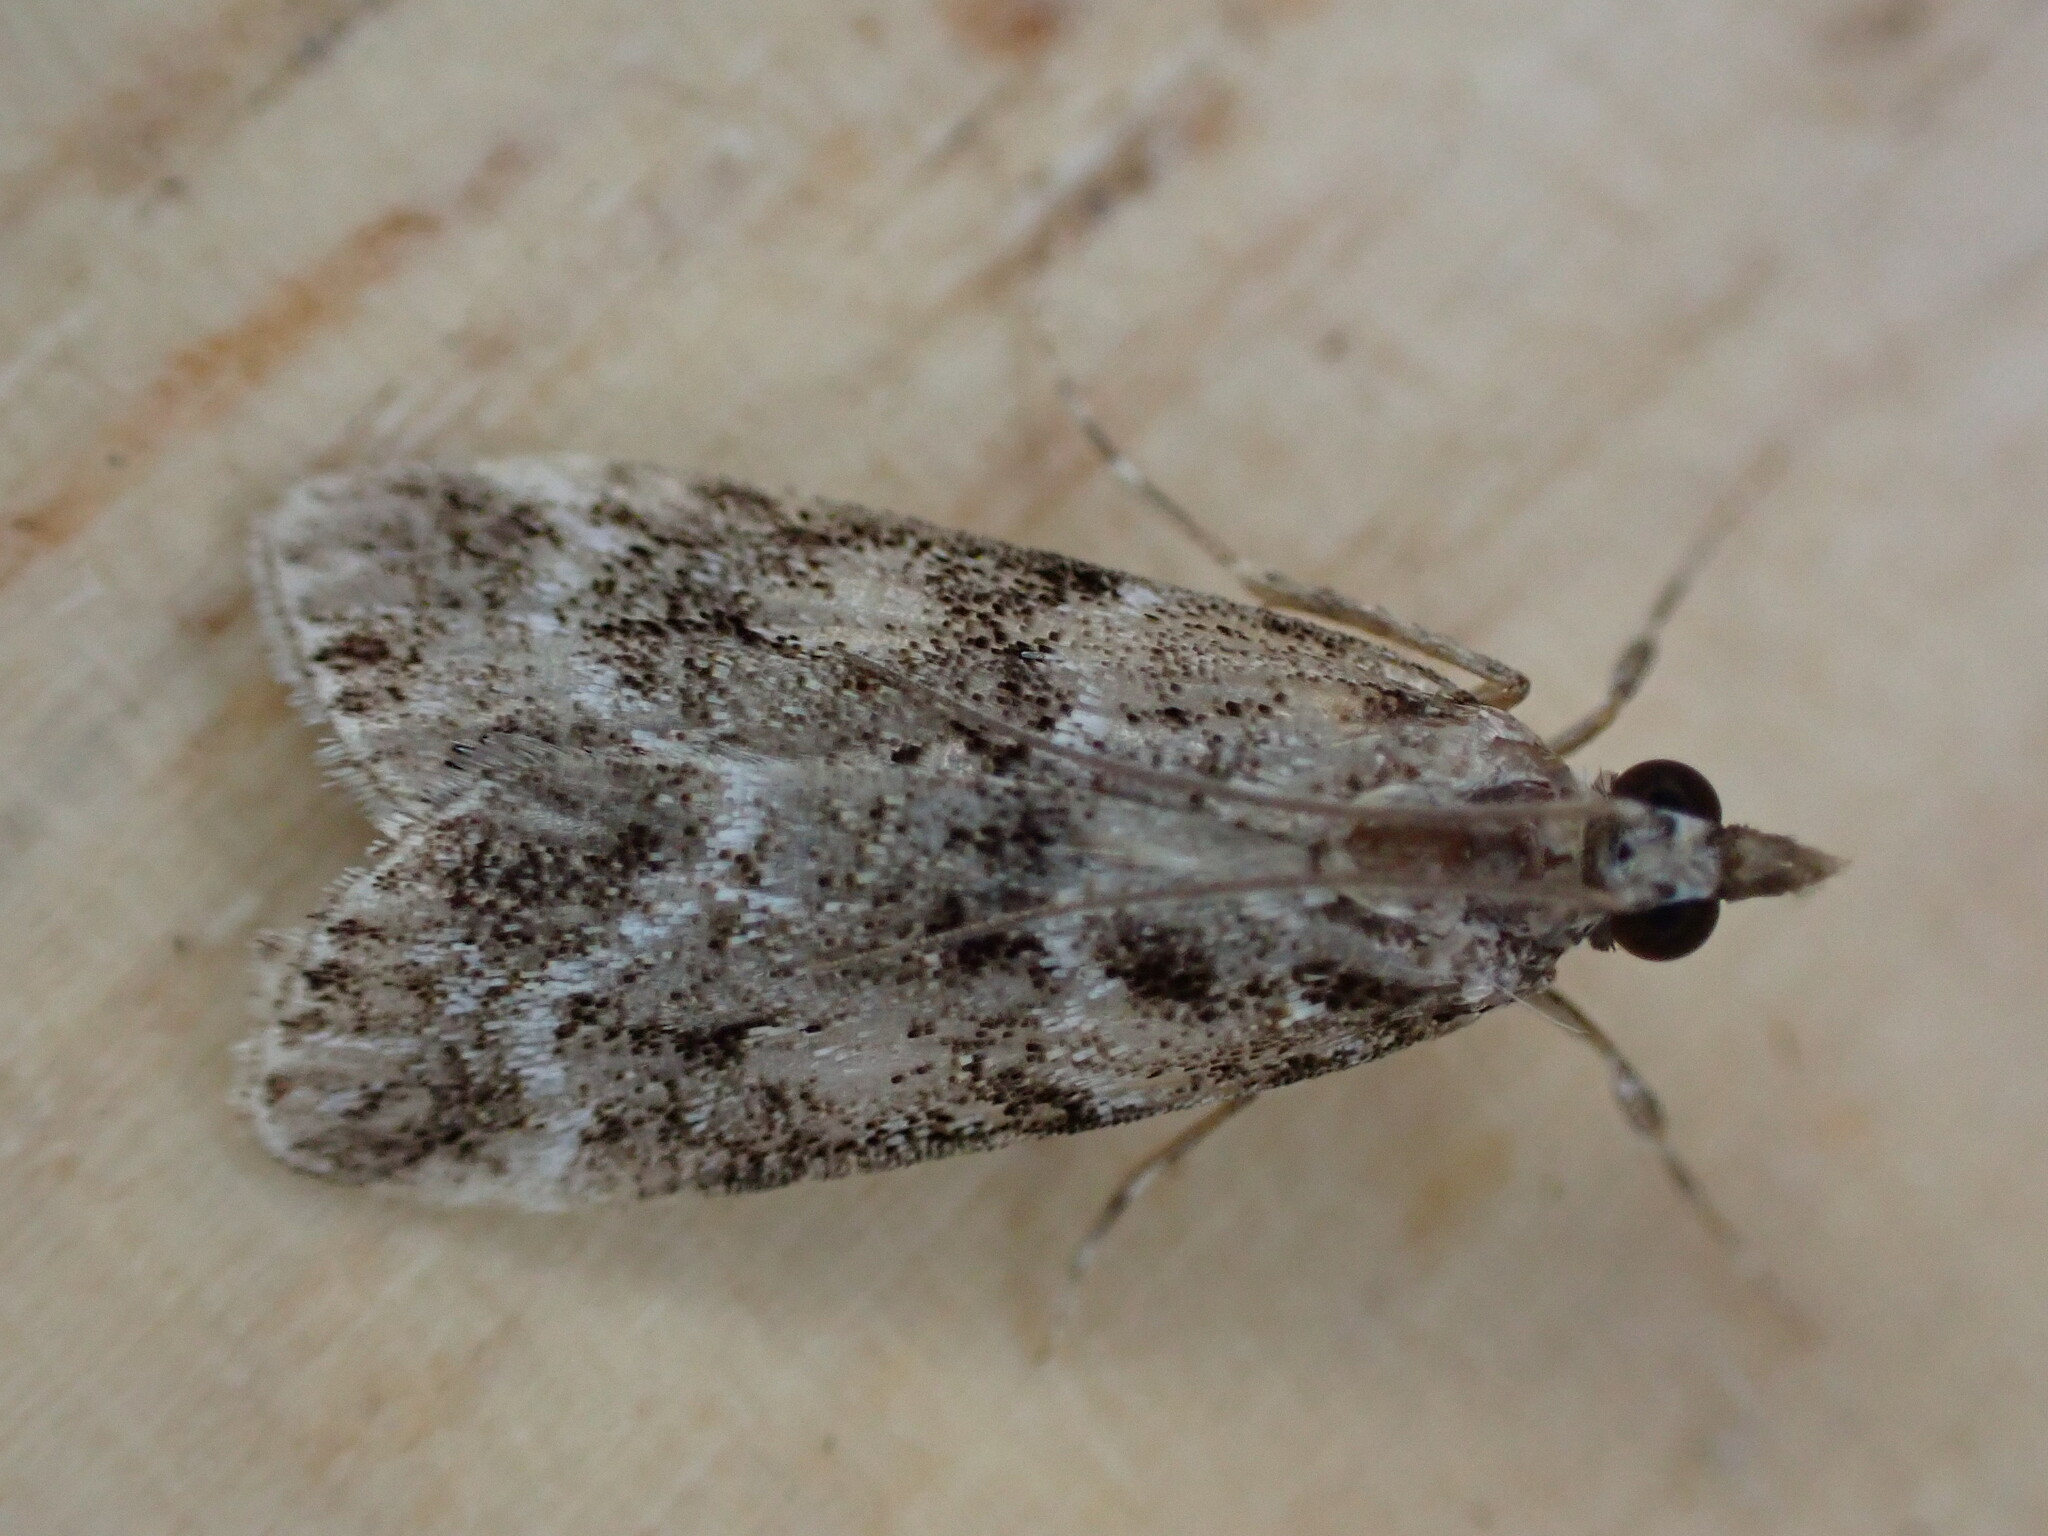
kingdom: Animalia
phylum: Arthropoda
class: Insecta
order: Lepidoptera
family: Crambidae
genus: Eudonia
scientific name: Eudonia mercurella
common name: Small grey
